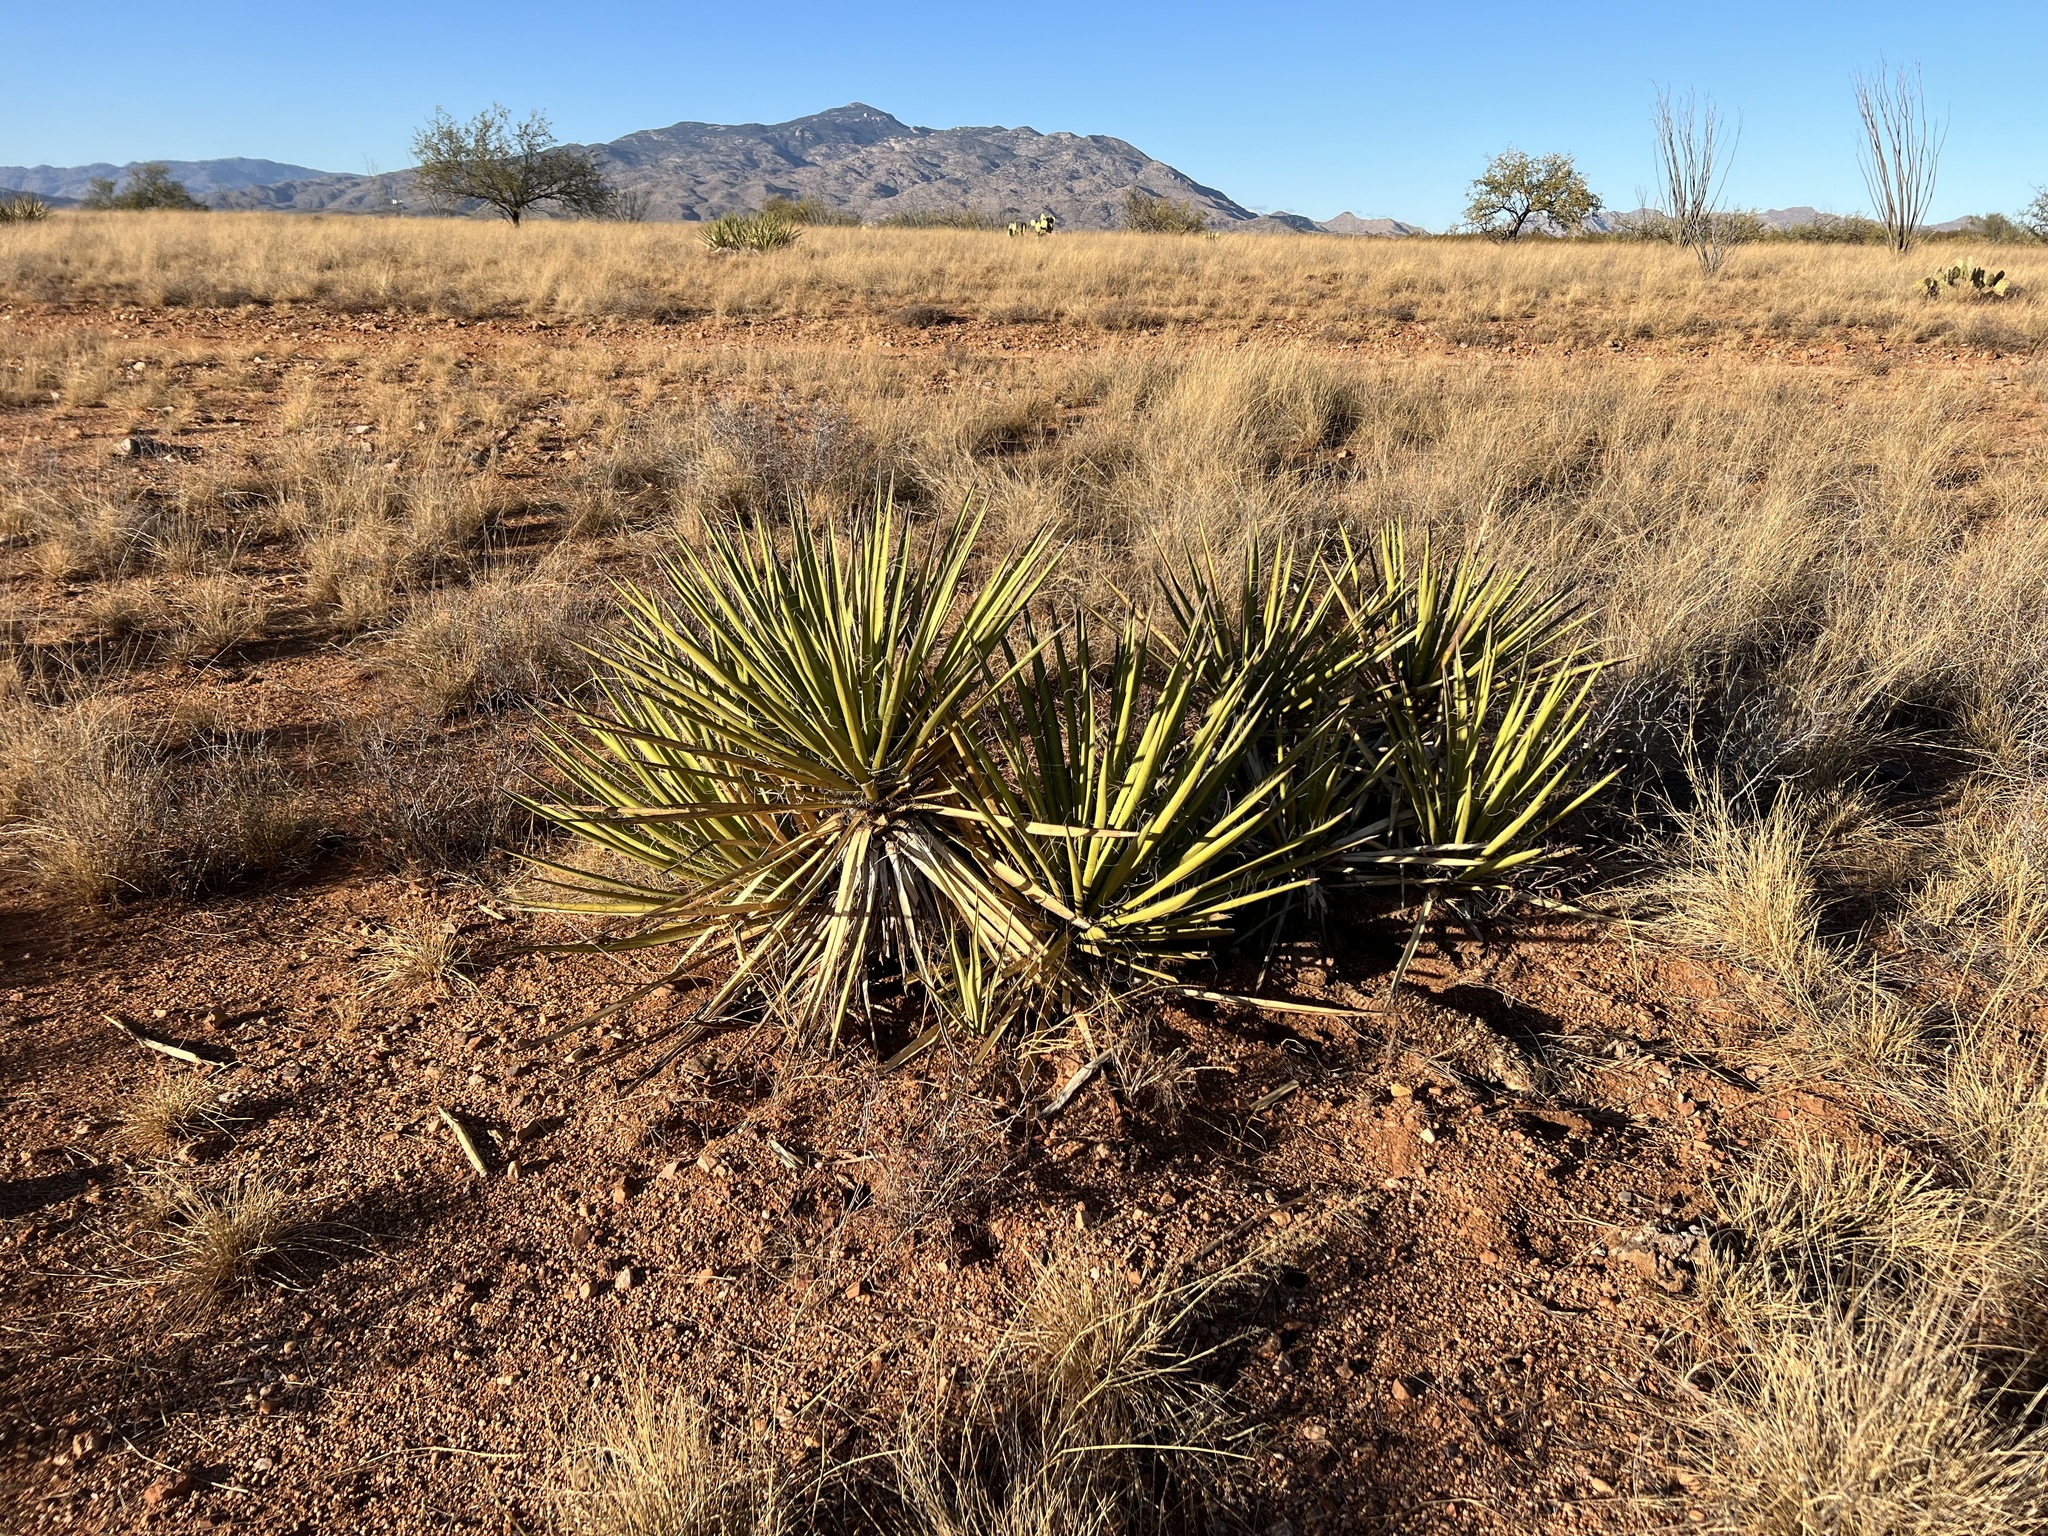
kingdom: Plantae
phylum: Tracheophyta
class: Liliopsida
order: Asparagales
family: Asparagaceae
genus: Yucca
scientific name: Yucca baccata
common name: Banana yucca
